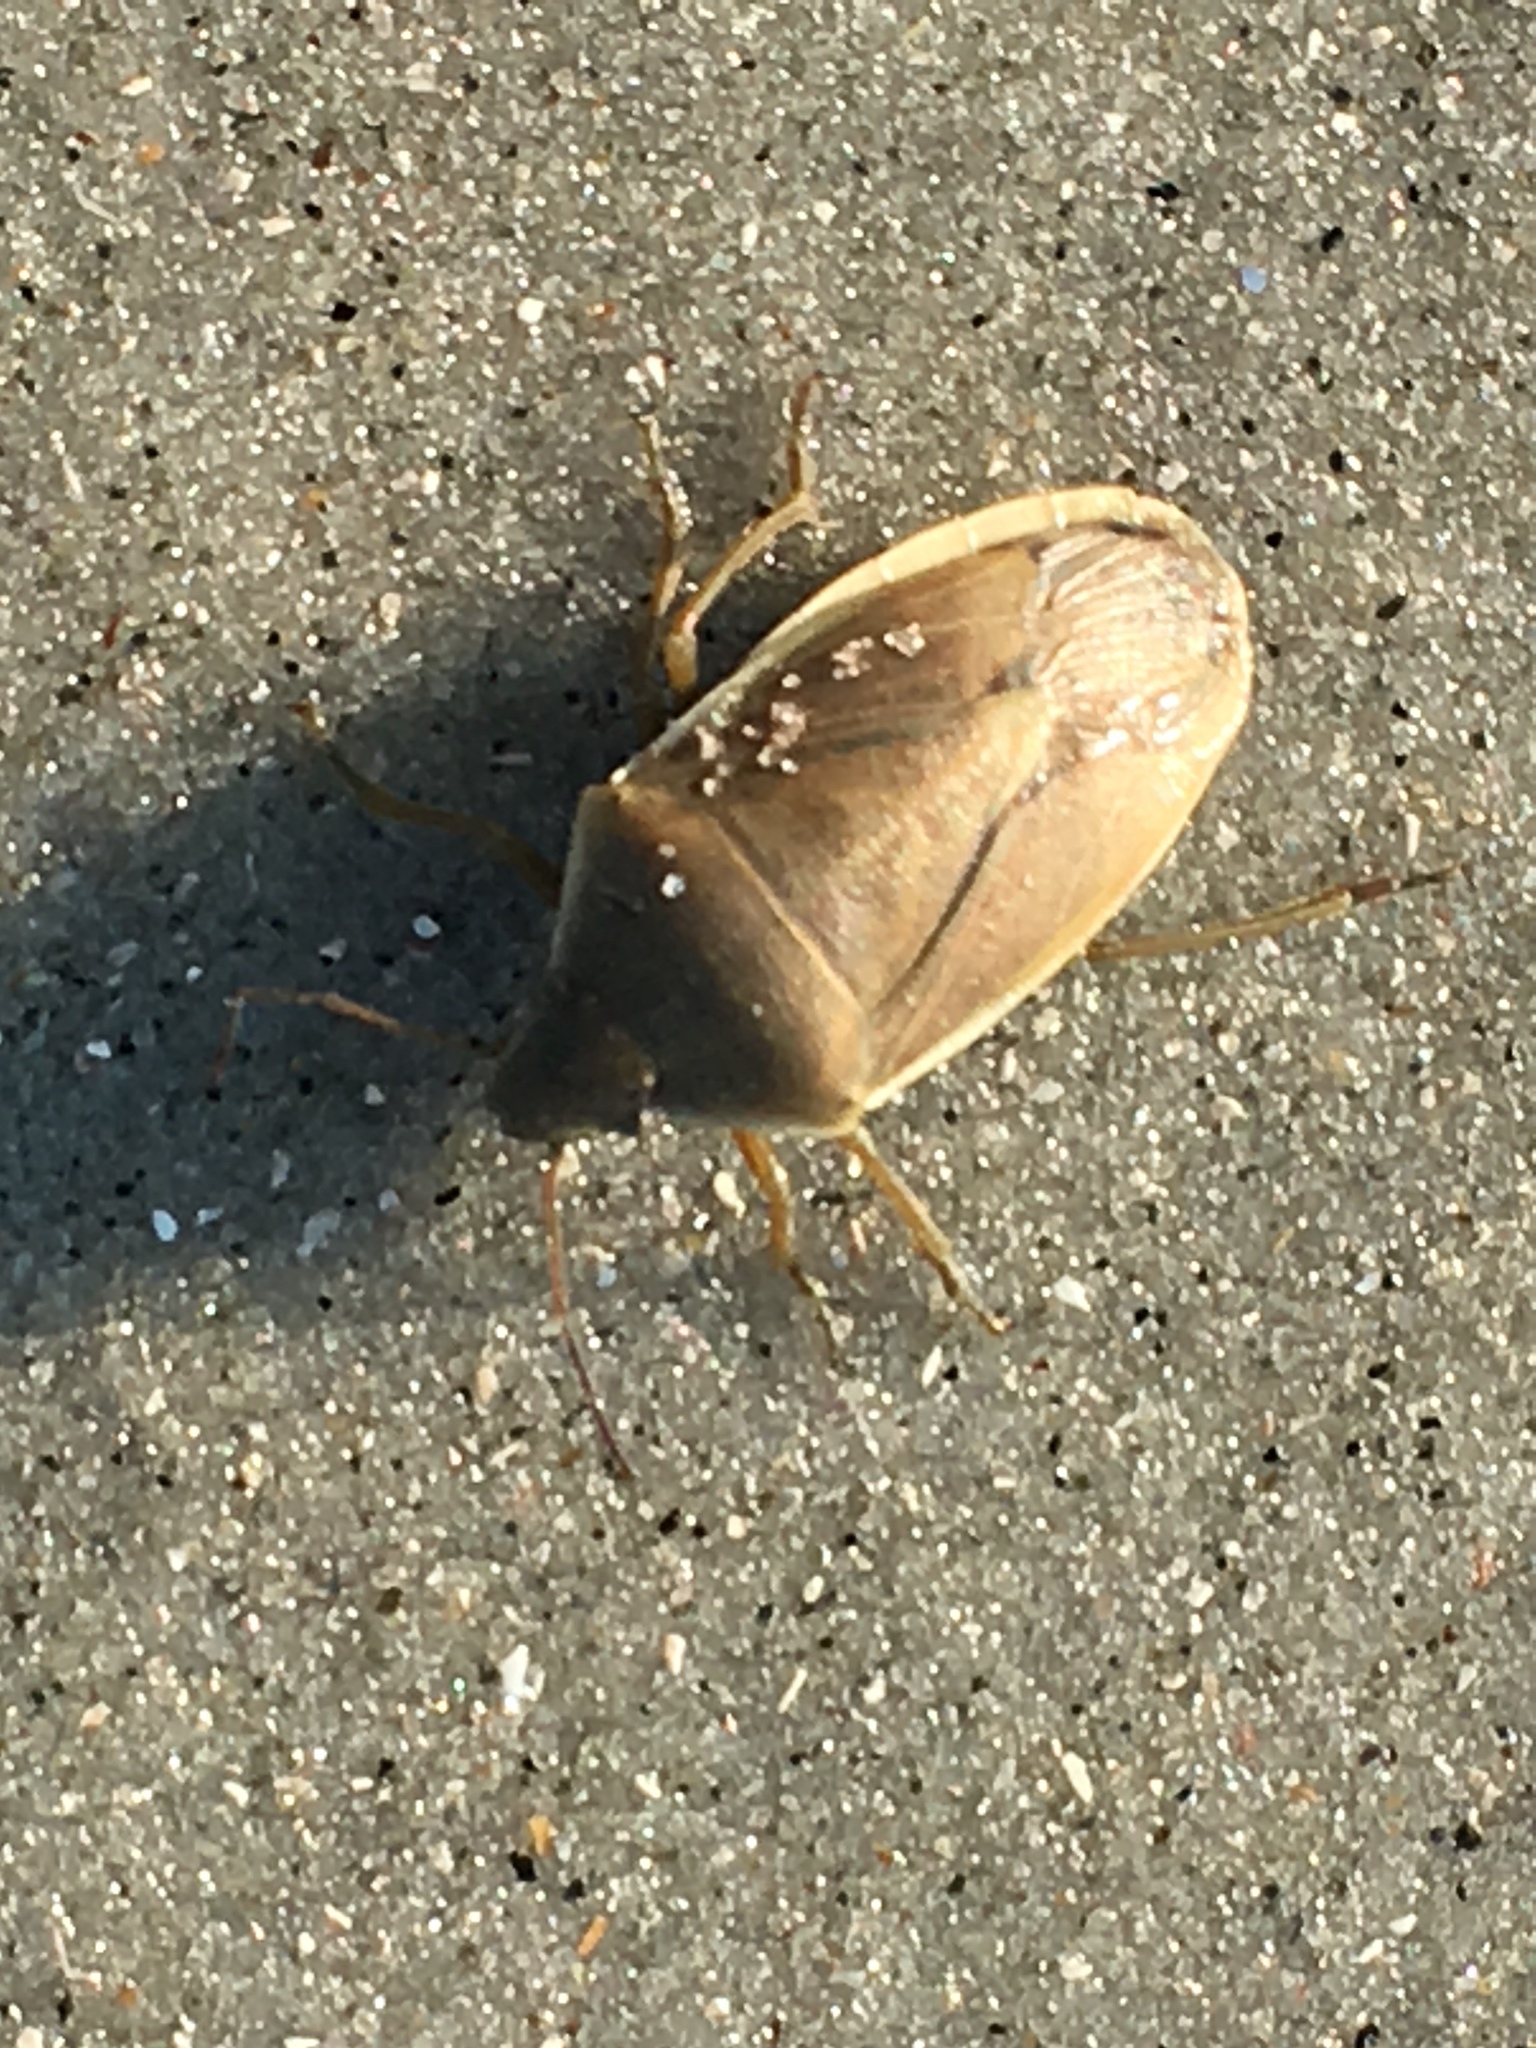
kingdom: Animalia
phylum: Arthropoda
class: Insecta
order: Hemiptera
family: Pentatomidae
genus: Chlorochroa
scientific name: Chlorochroa senilis
